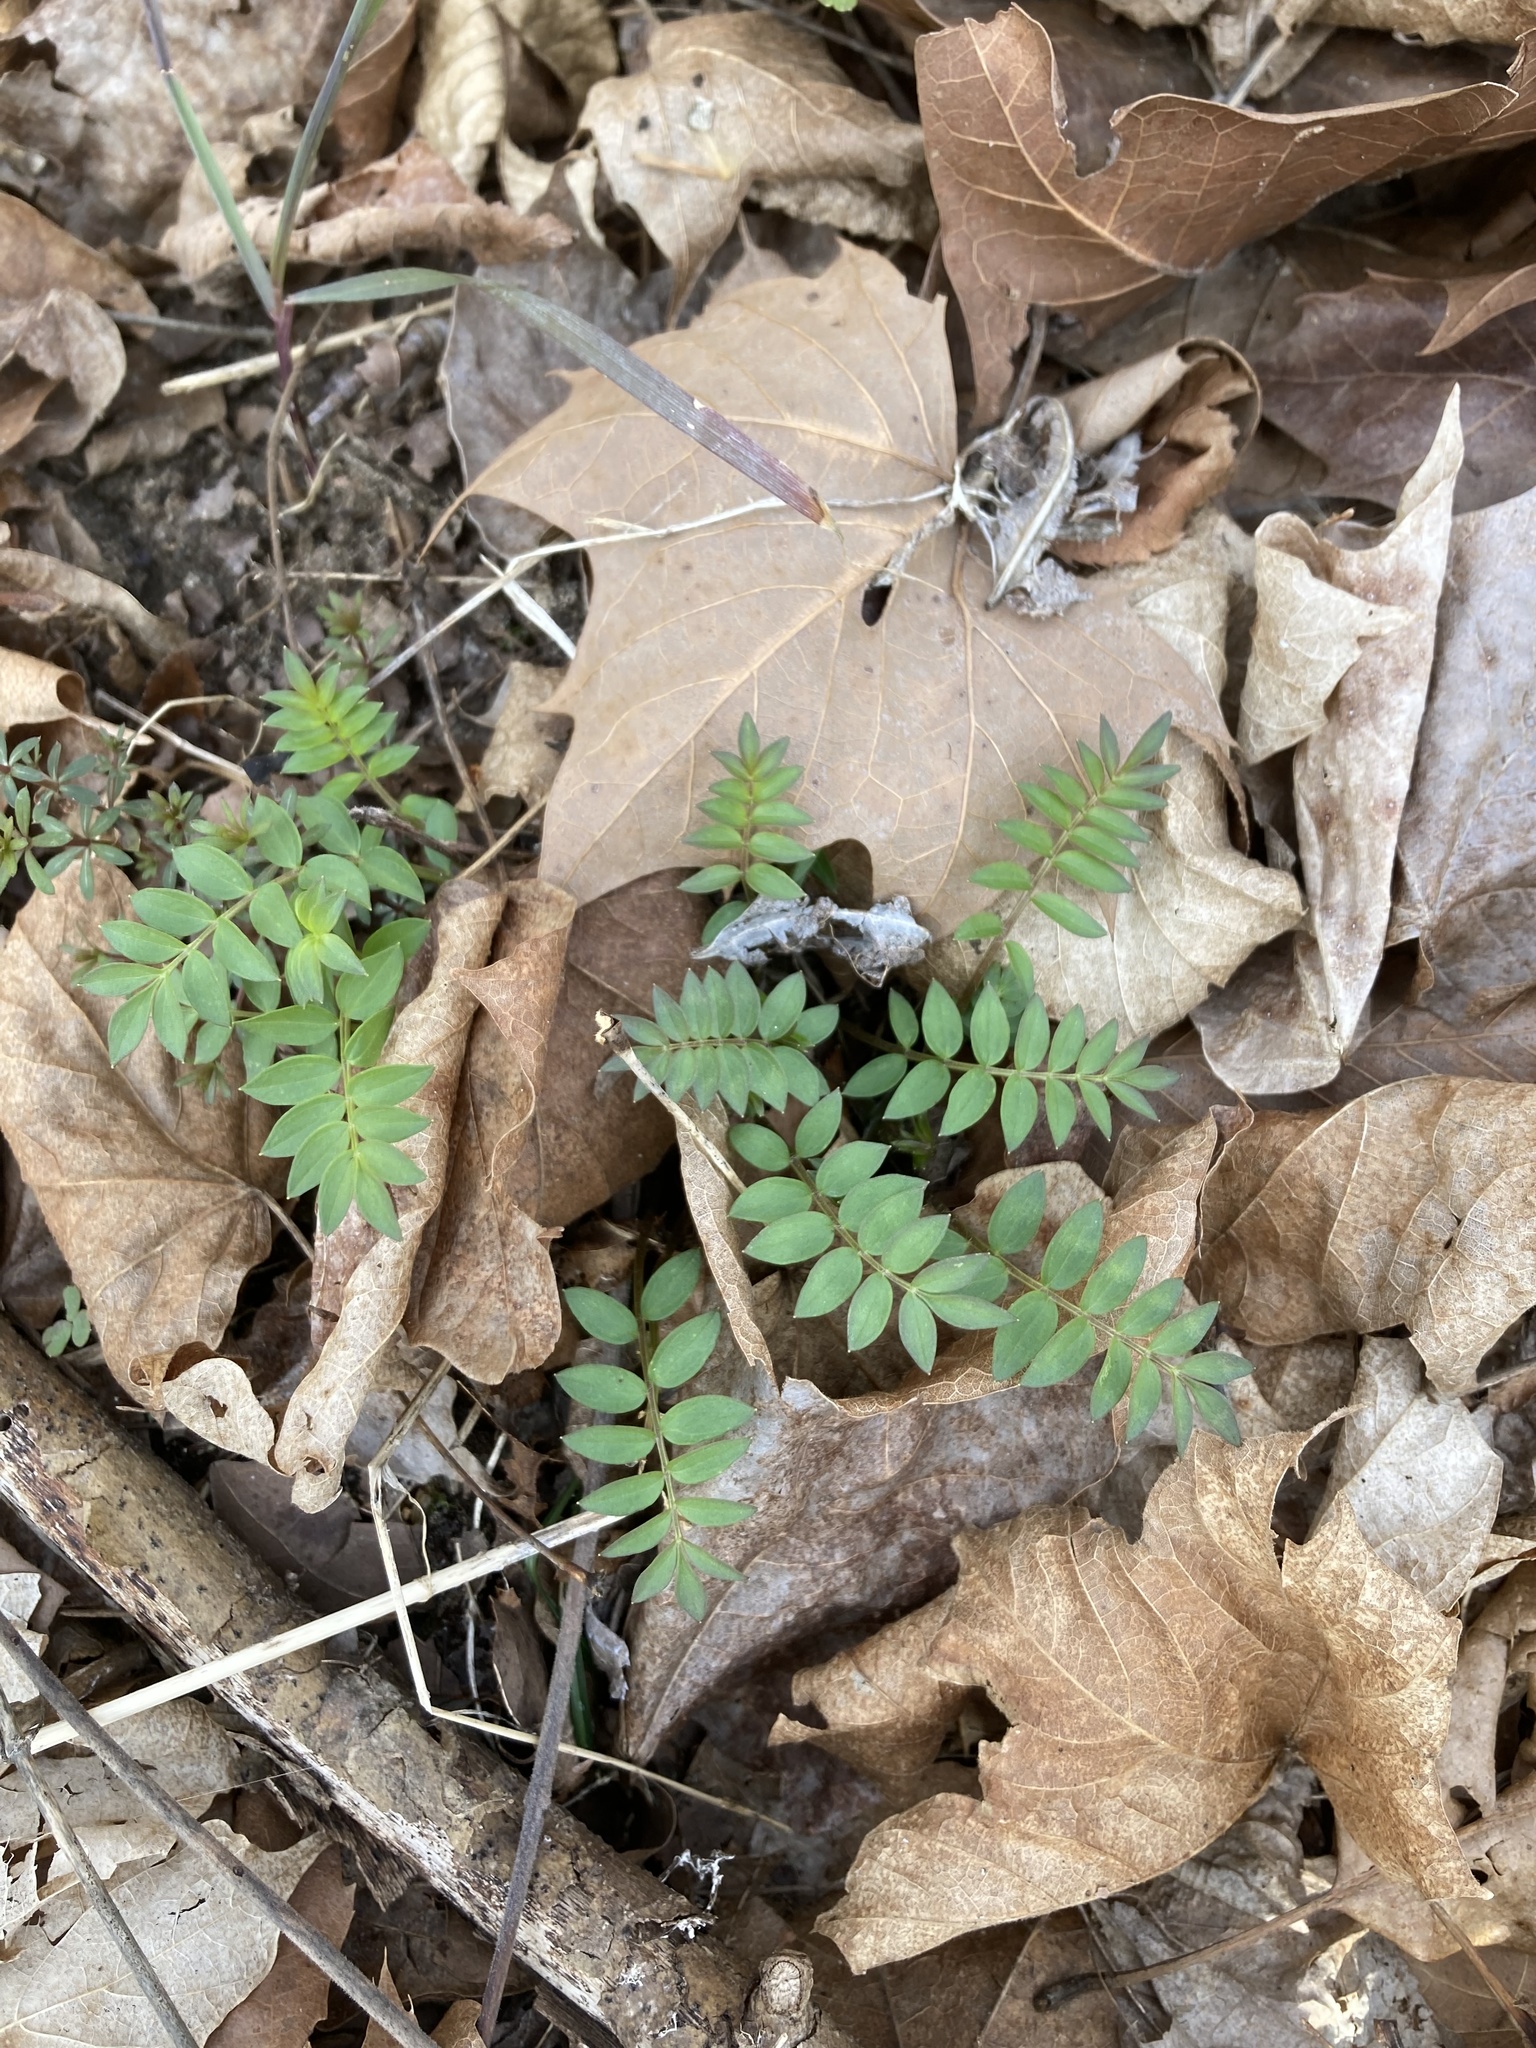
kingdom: Plantae
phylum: Tracheophyta
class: Magnoliopsida
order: Ericales
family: Polemoniaceae
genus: Polemonium
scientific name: Polemonium reptans
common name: Creeping jacob's-ladder
